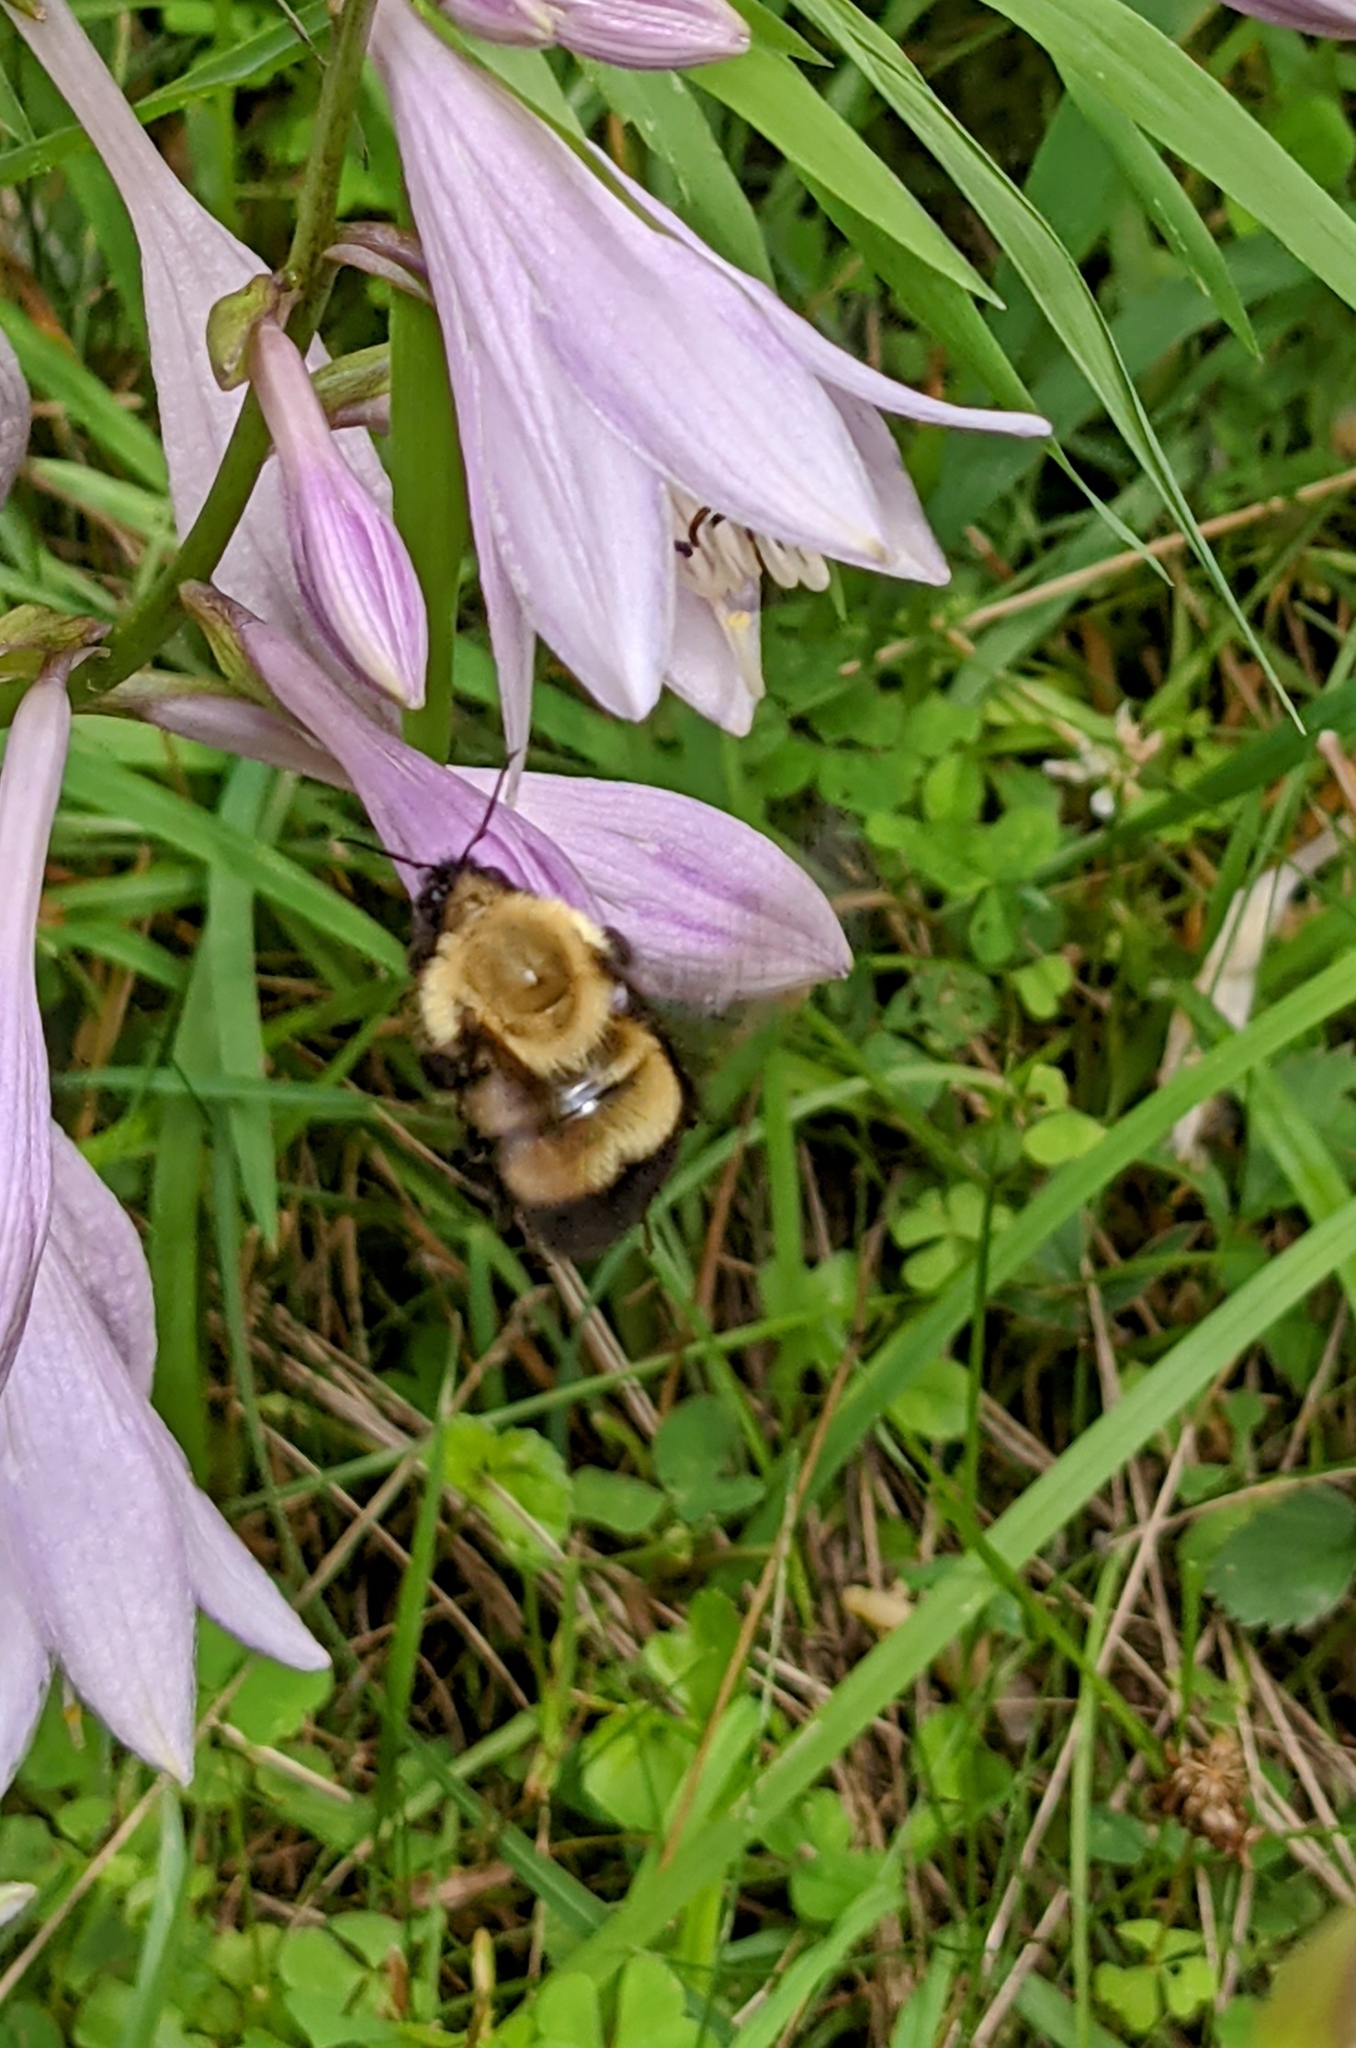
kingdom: Animalia
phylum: Arthropoda
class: Insecta
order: Hymenoptera
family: Apidae
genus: Bombus
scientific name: Bombus perplexus
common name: Confusing bumble bee
